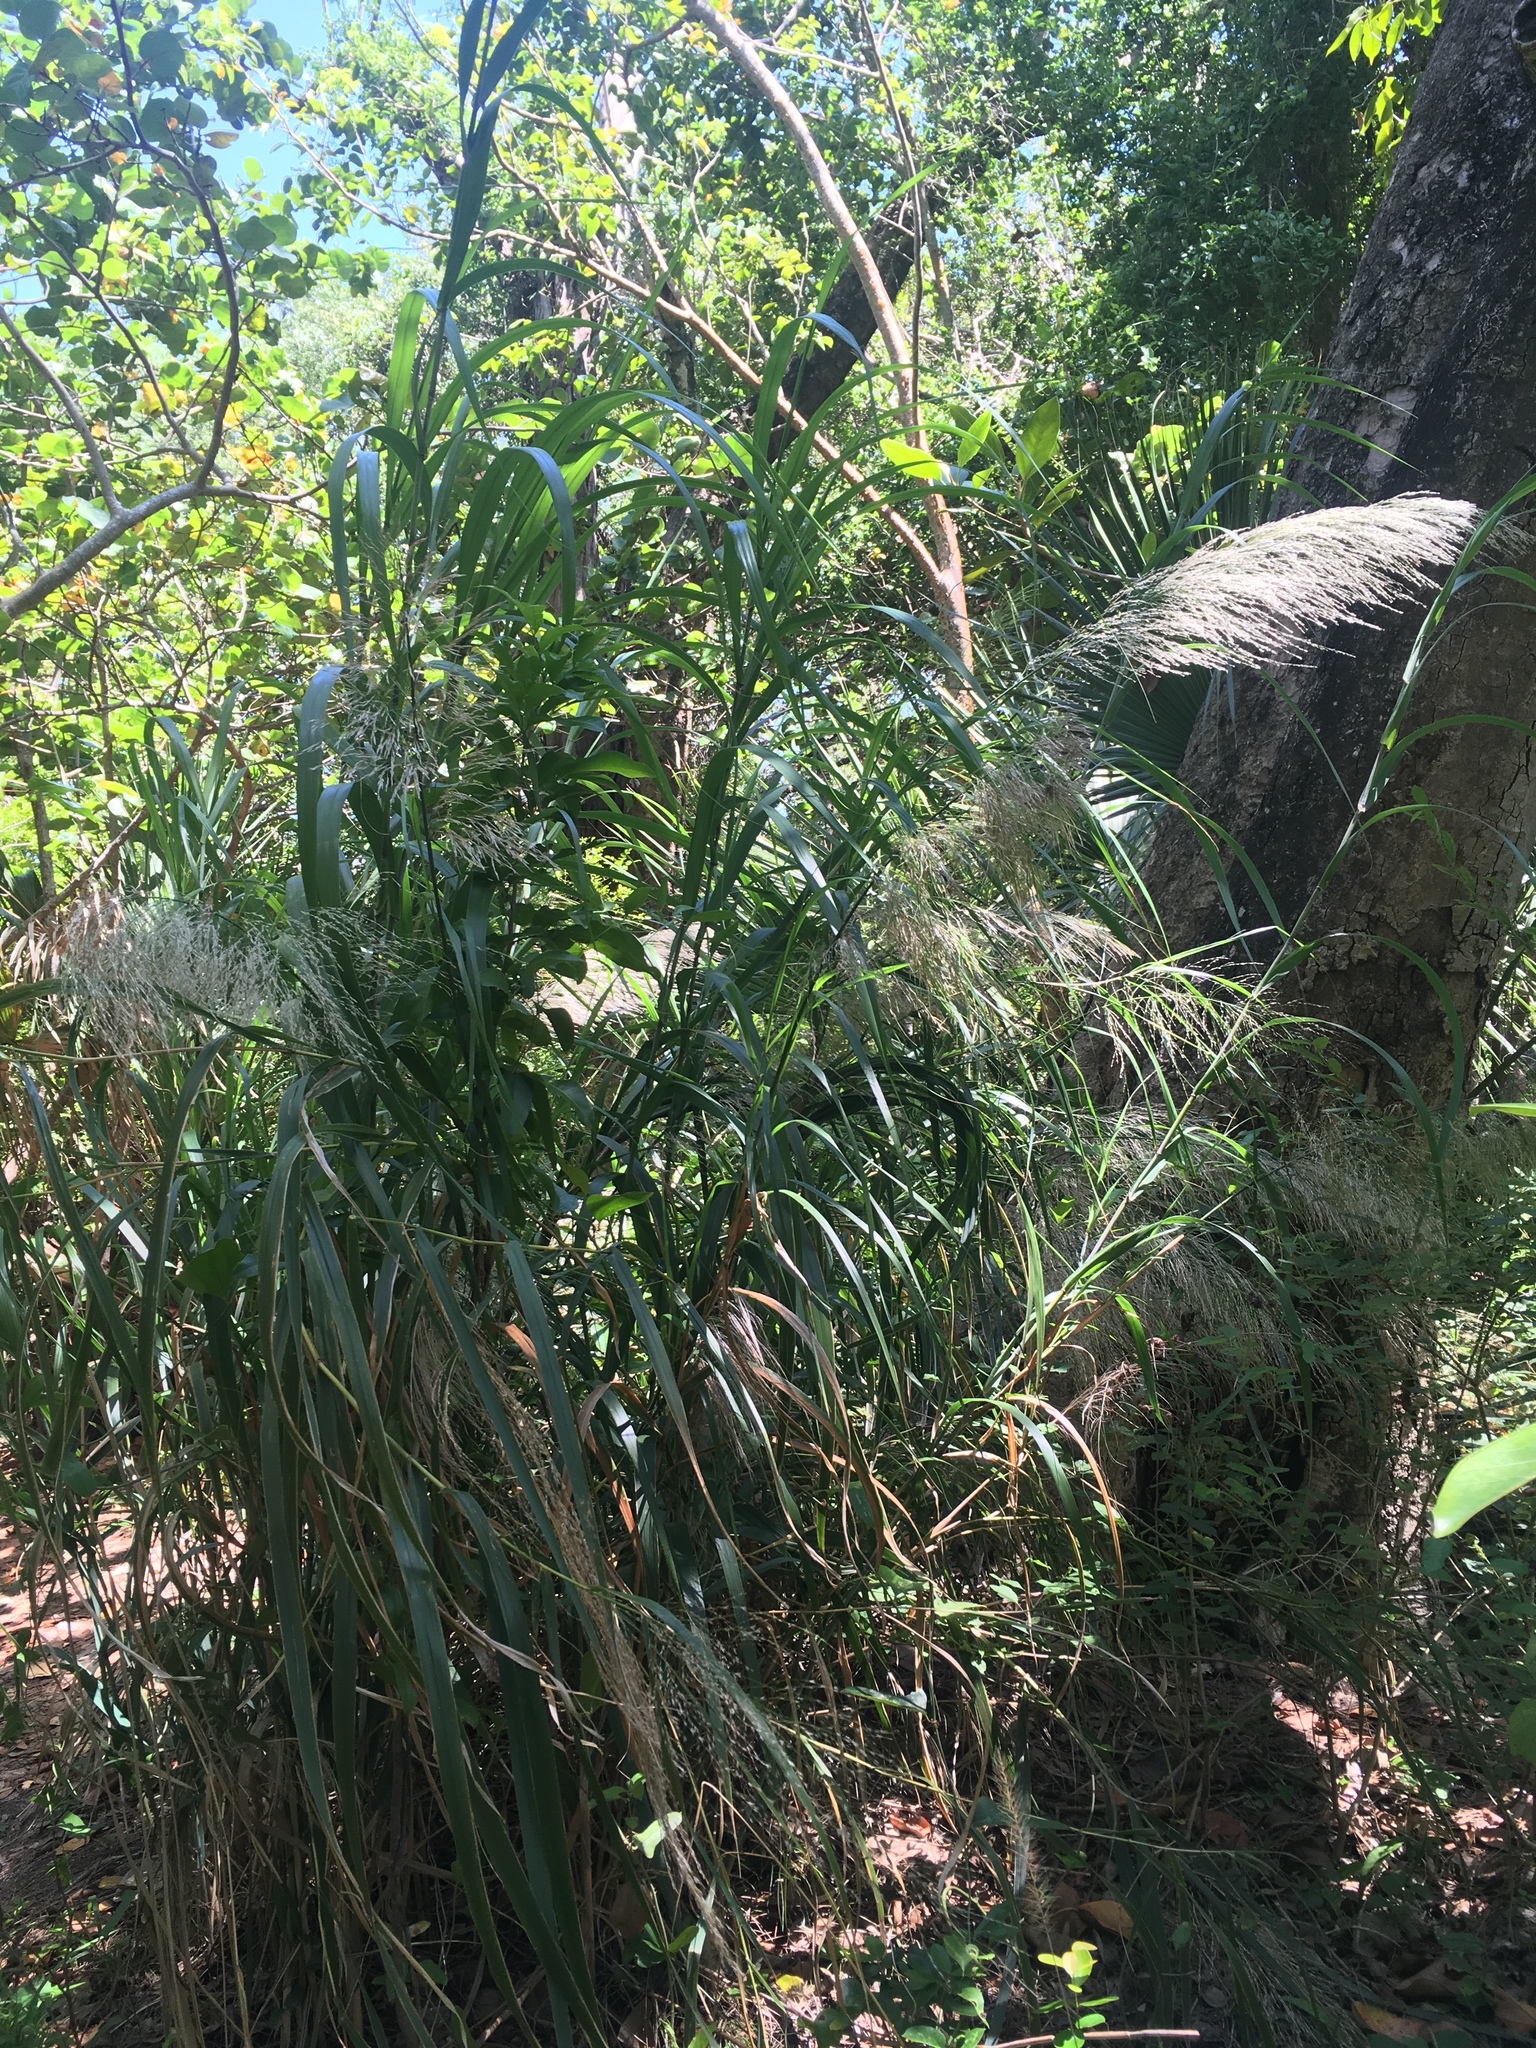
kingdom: Plantae
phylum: Tracheophyta
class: Liliopsida
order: Poales
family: Poaceae
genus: Neyraudia
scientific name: Neyraudia reynaudiana
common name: Silkreed
